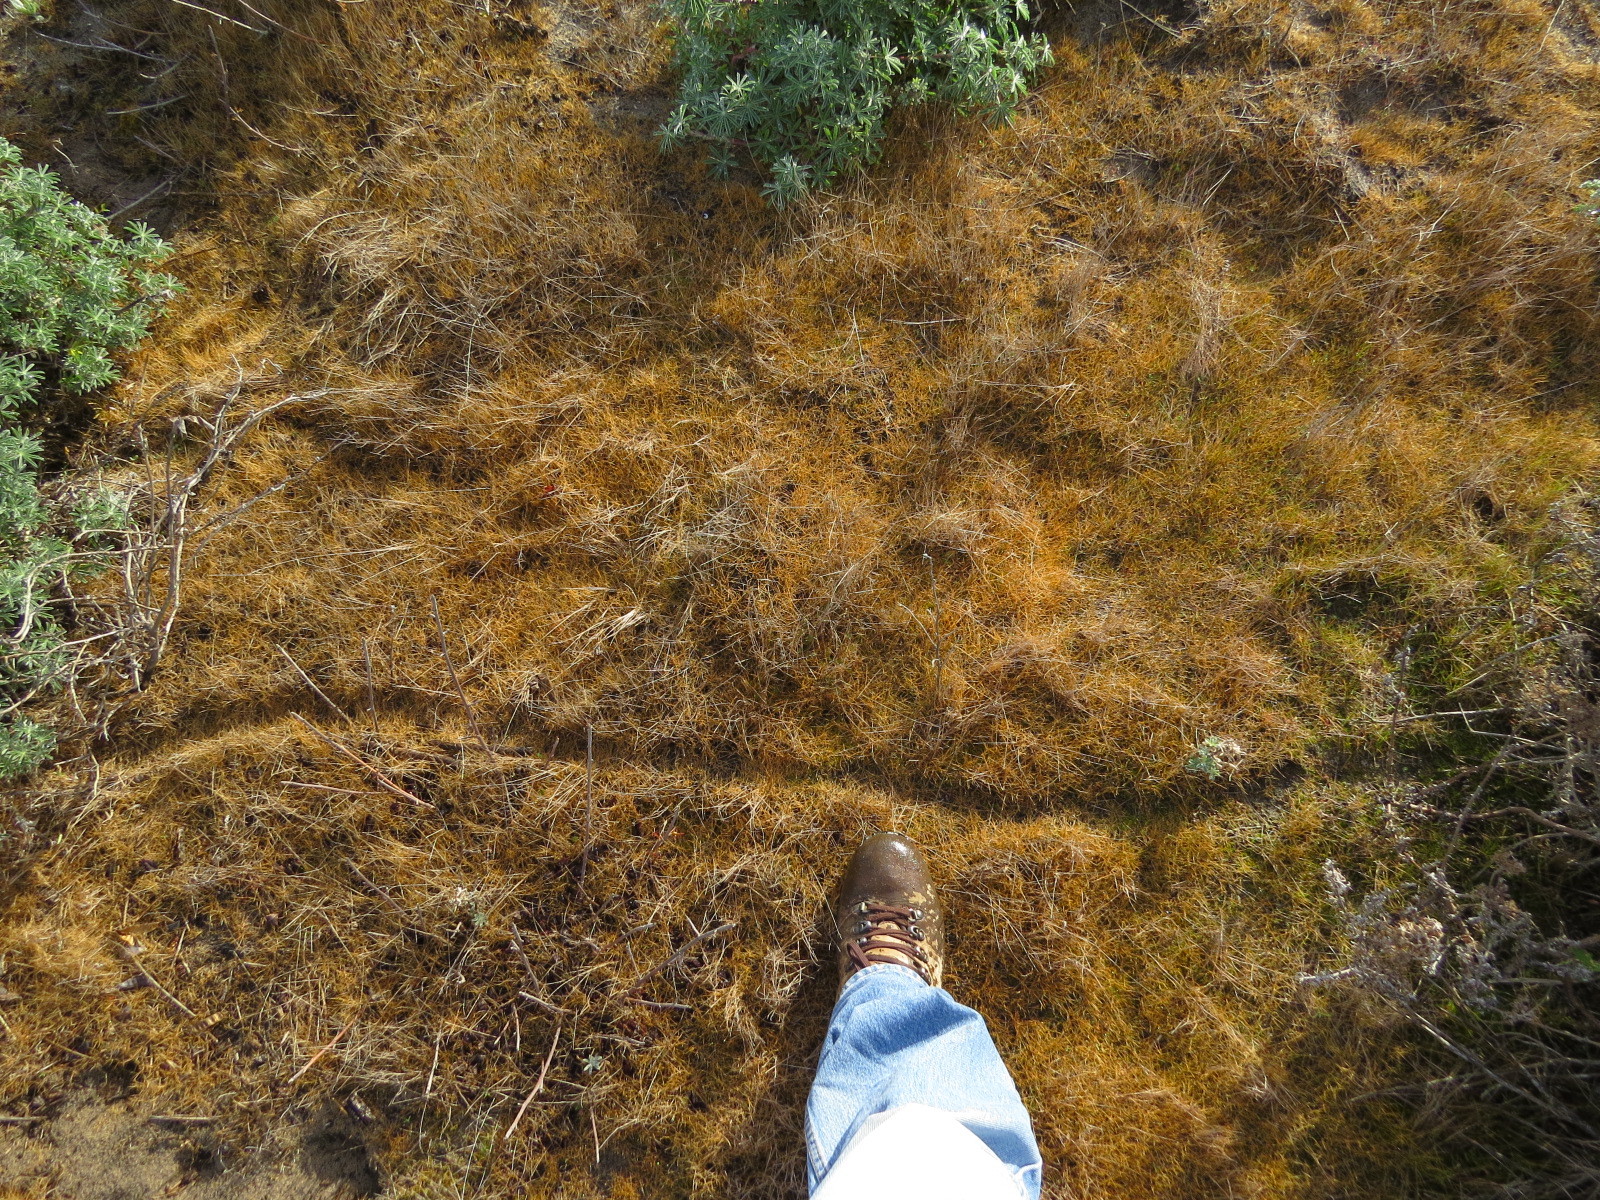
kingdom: Animalia
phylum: Chordata
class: Mammalia
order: Rodentia
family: Cricetidae
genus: Microtus
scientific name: Microtus californicus
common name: California vole
